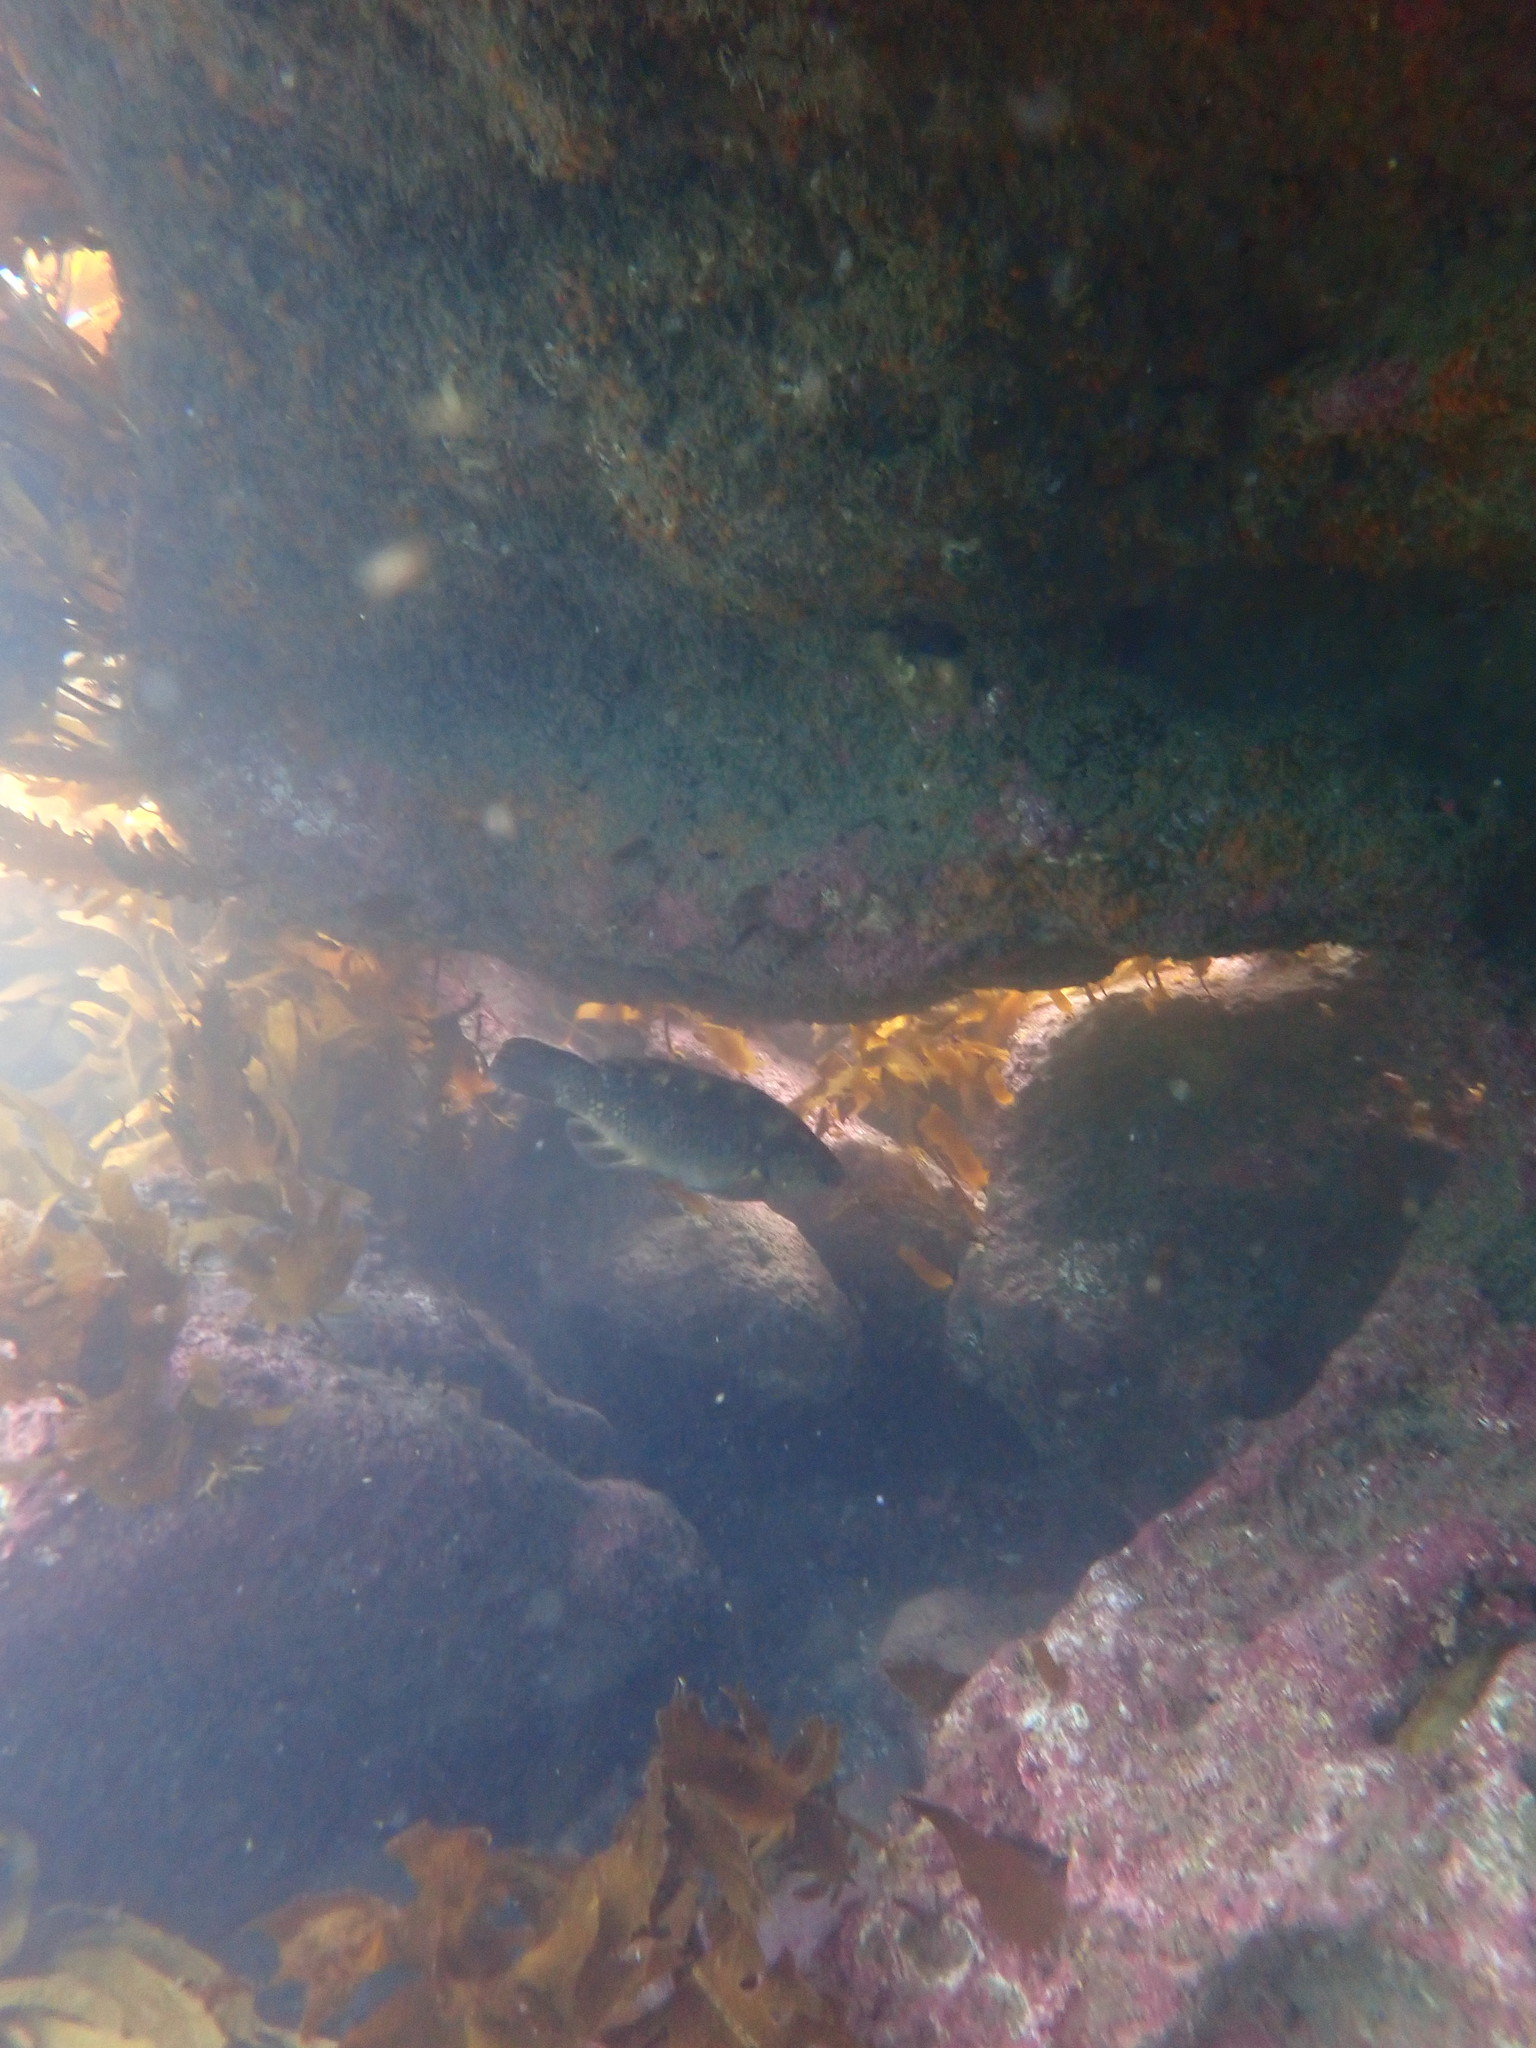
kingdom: Animalia
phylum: Chordata
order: Perciformes
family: Labridae
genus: Notolabrus
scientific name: Notolabrus fucicola
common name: Banded parrotfish
